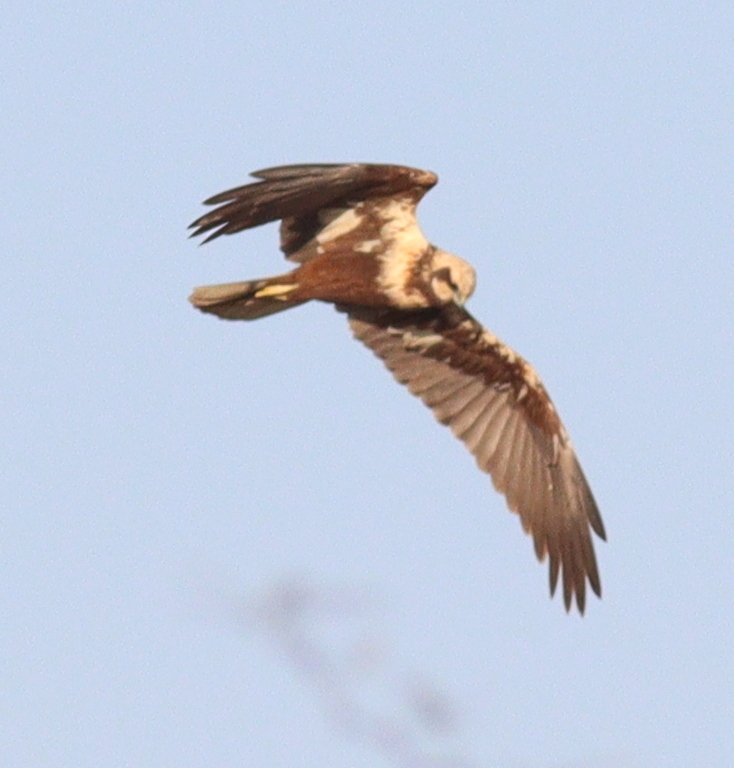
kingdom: Animalia
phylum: Chordata
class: Aves
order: Accipitriformes
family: Accipitridae
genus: Circus
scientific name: Circus aeruginosus
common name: Western marsh harrier
